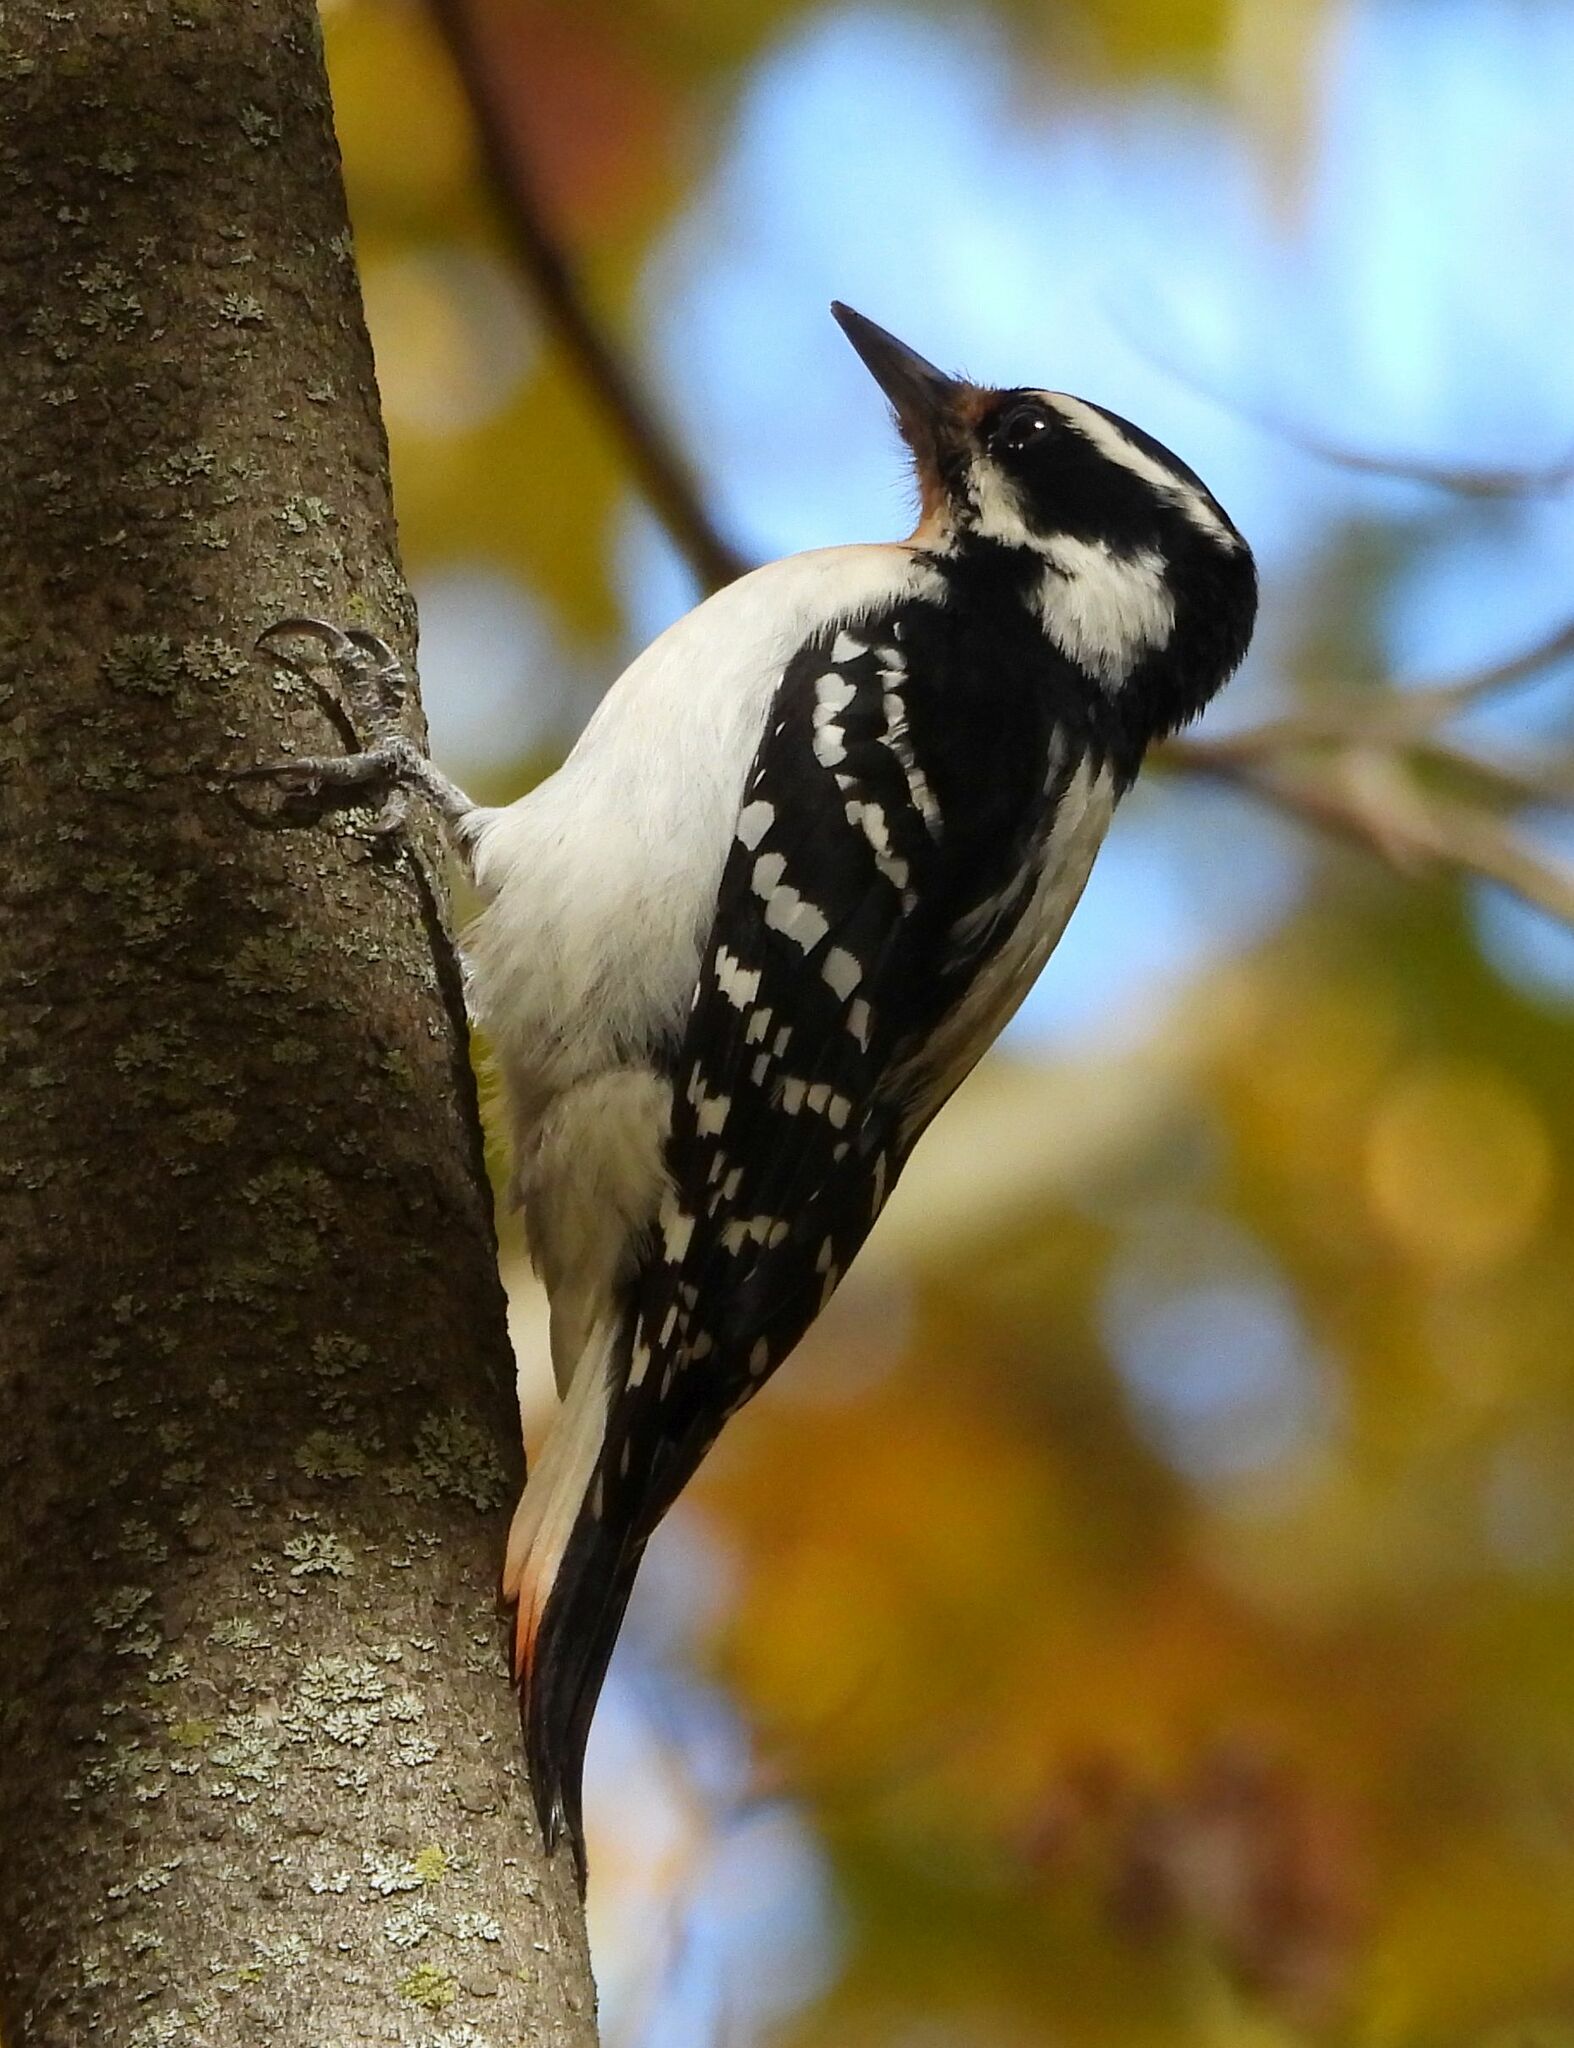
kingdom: Animalia
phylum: Chordata
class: Aves
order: Piciformes
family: Picidae
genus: Leuconotopicus
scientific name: Leuconotopicus villosus
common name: Hairy woodpecker
